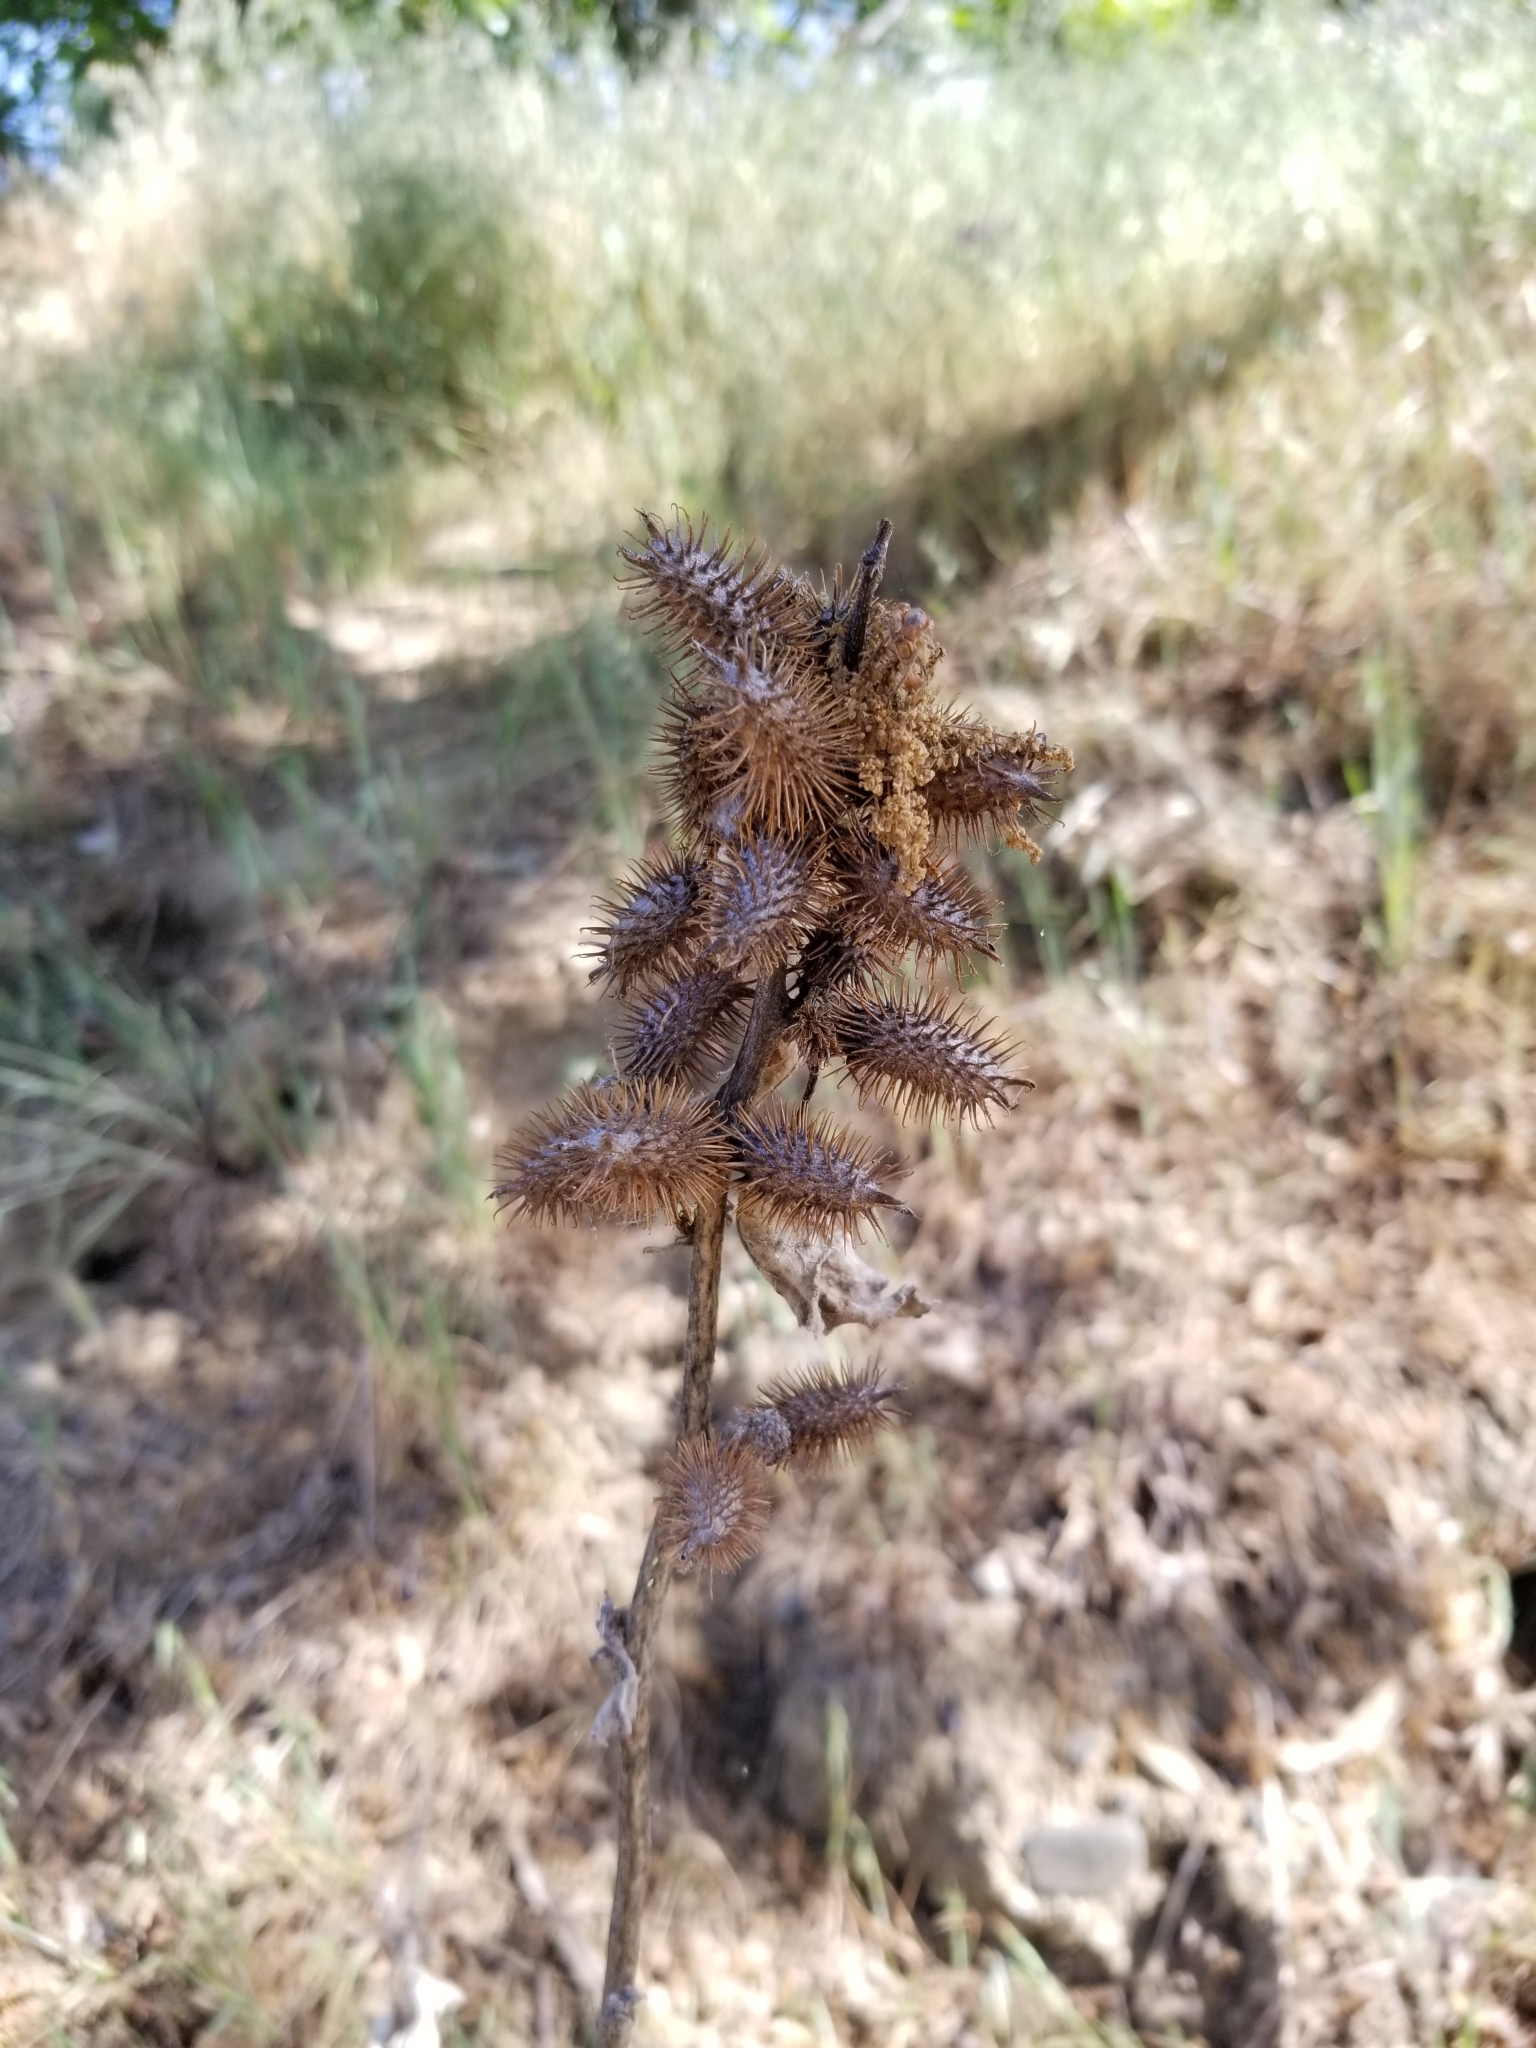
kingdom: Plantae
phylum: Tracheophyta
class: Magnoliopsida
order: Asterales
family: Asteraceae
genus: Xanthium
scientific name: Xanthium strumarium
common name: Rough cocklebur
